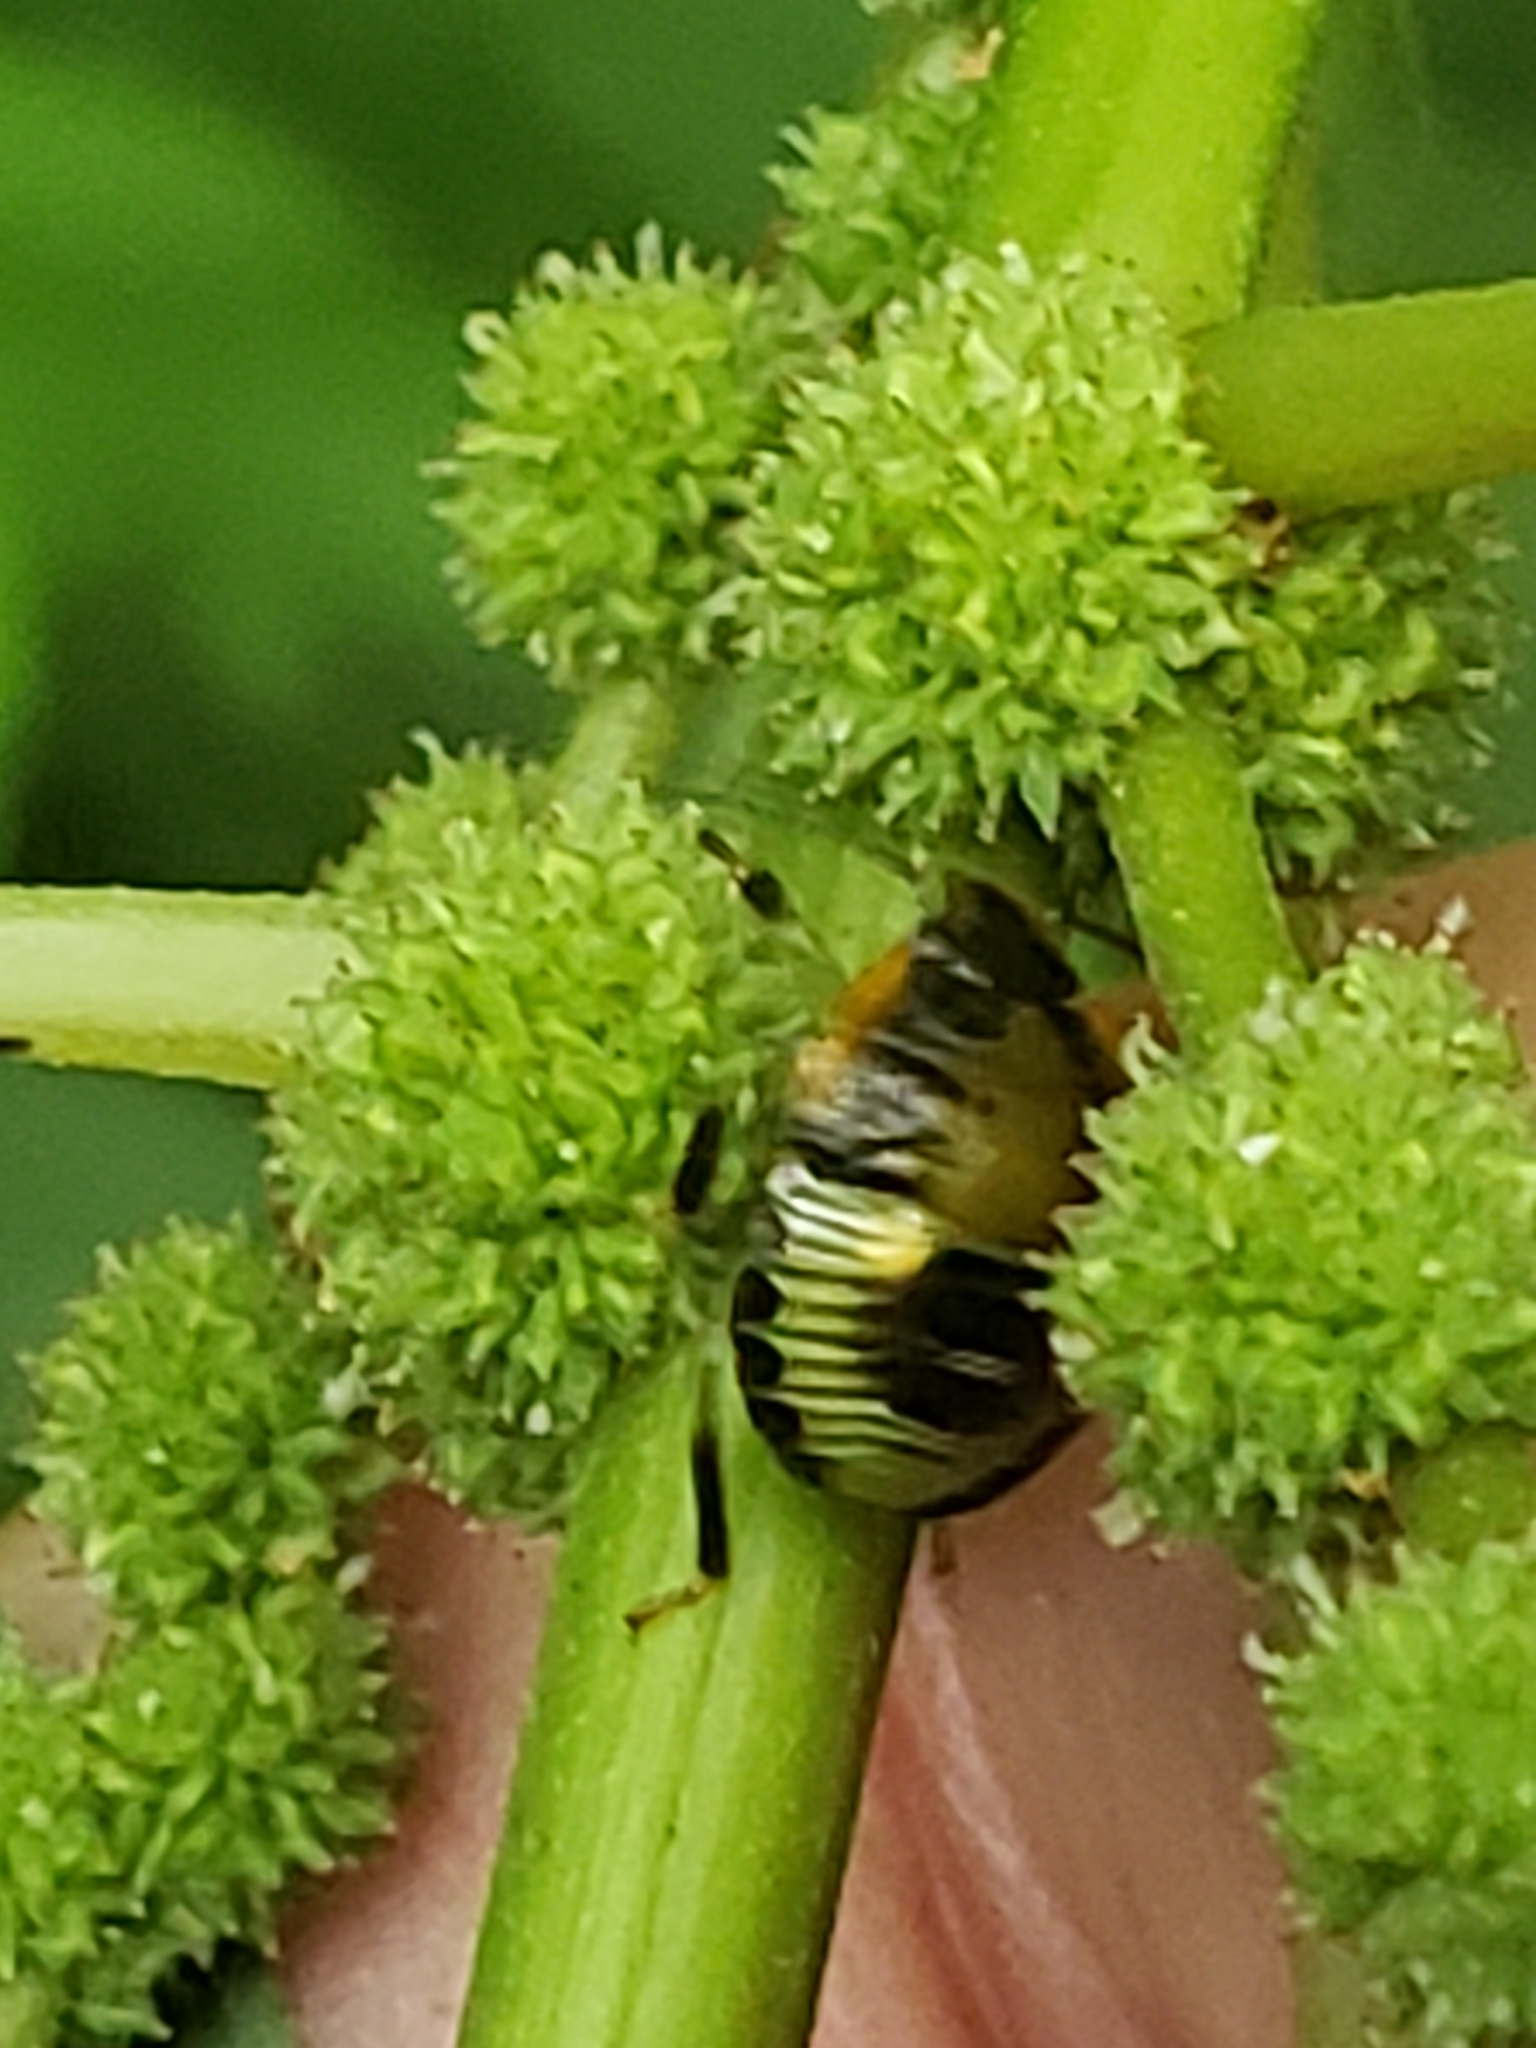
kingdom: Animalia
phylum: Arthropoda
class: Insecta
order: Hemiptera
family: Pentatomidae
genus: Chinavia
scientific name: Chinavia hilaris
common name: Green stink bug
